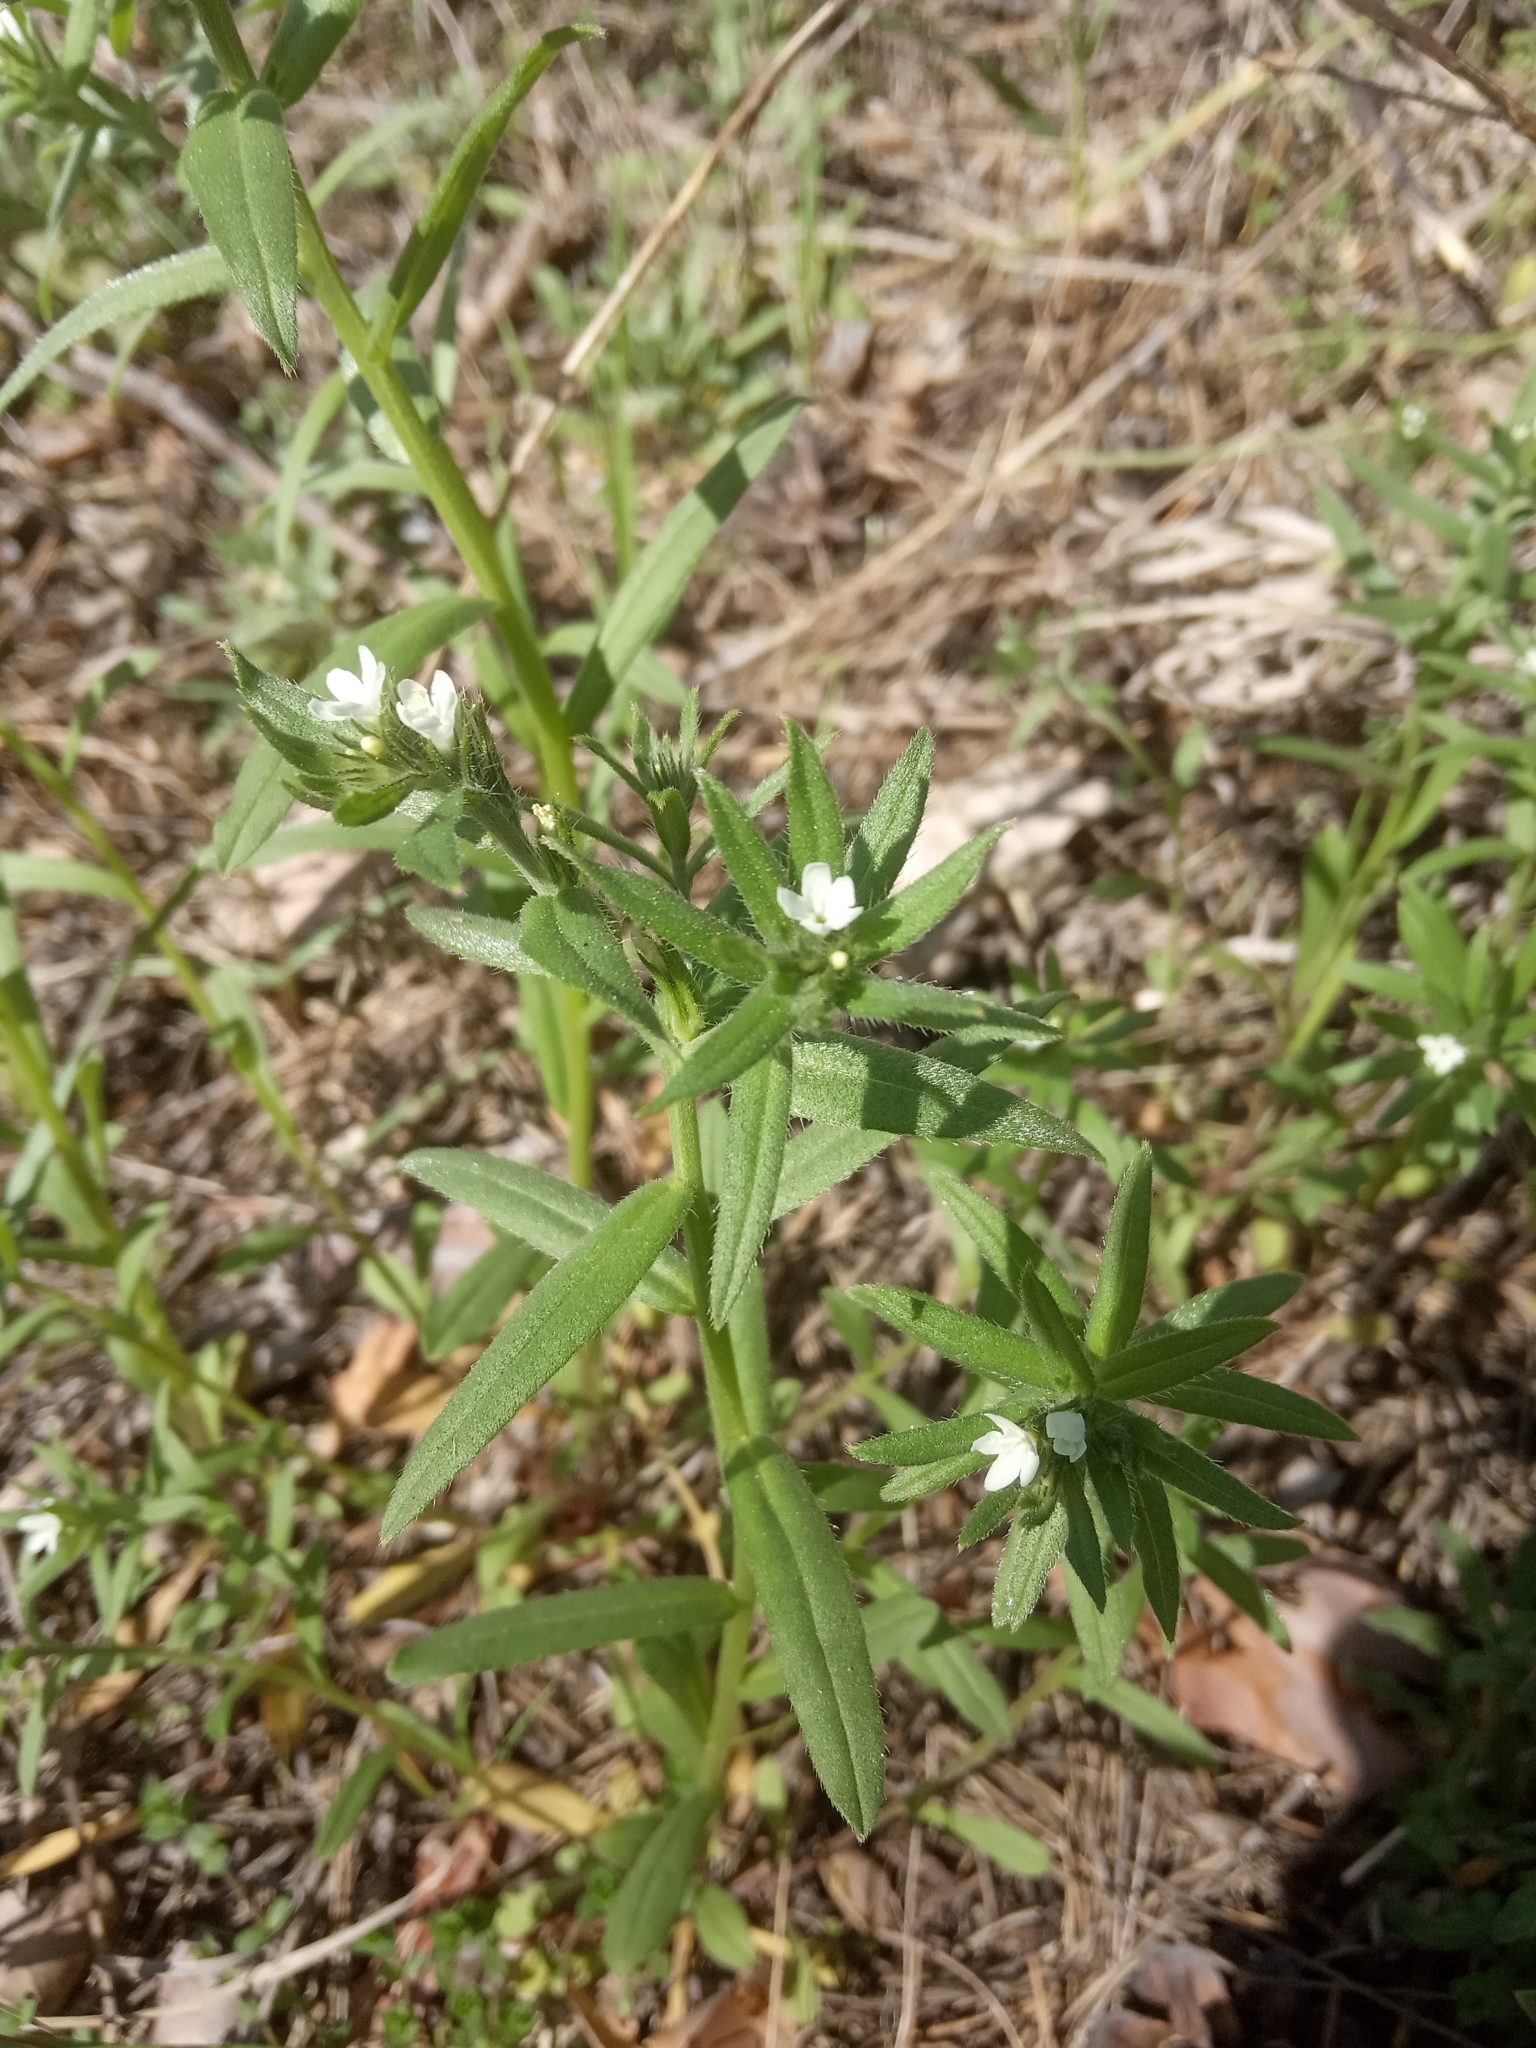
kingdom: Plantae
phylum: Tracheophyta
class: Magnoliopsida
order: Boraginales
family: Boraginaceae
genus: Buglossoides
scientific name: Buglossoides arvensis
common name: Corn gromwell
